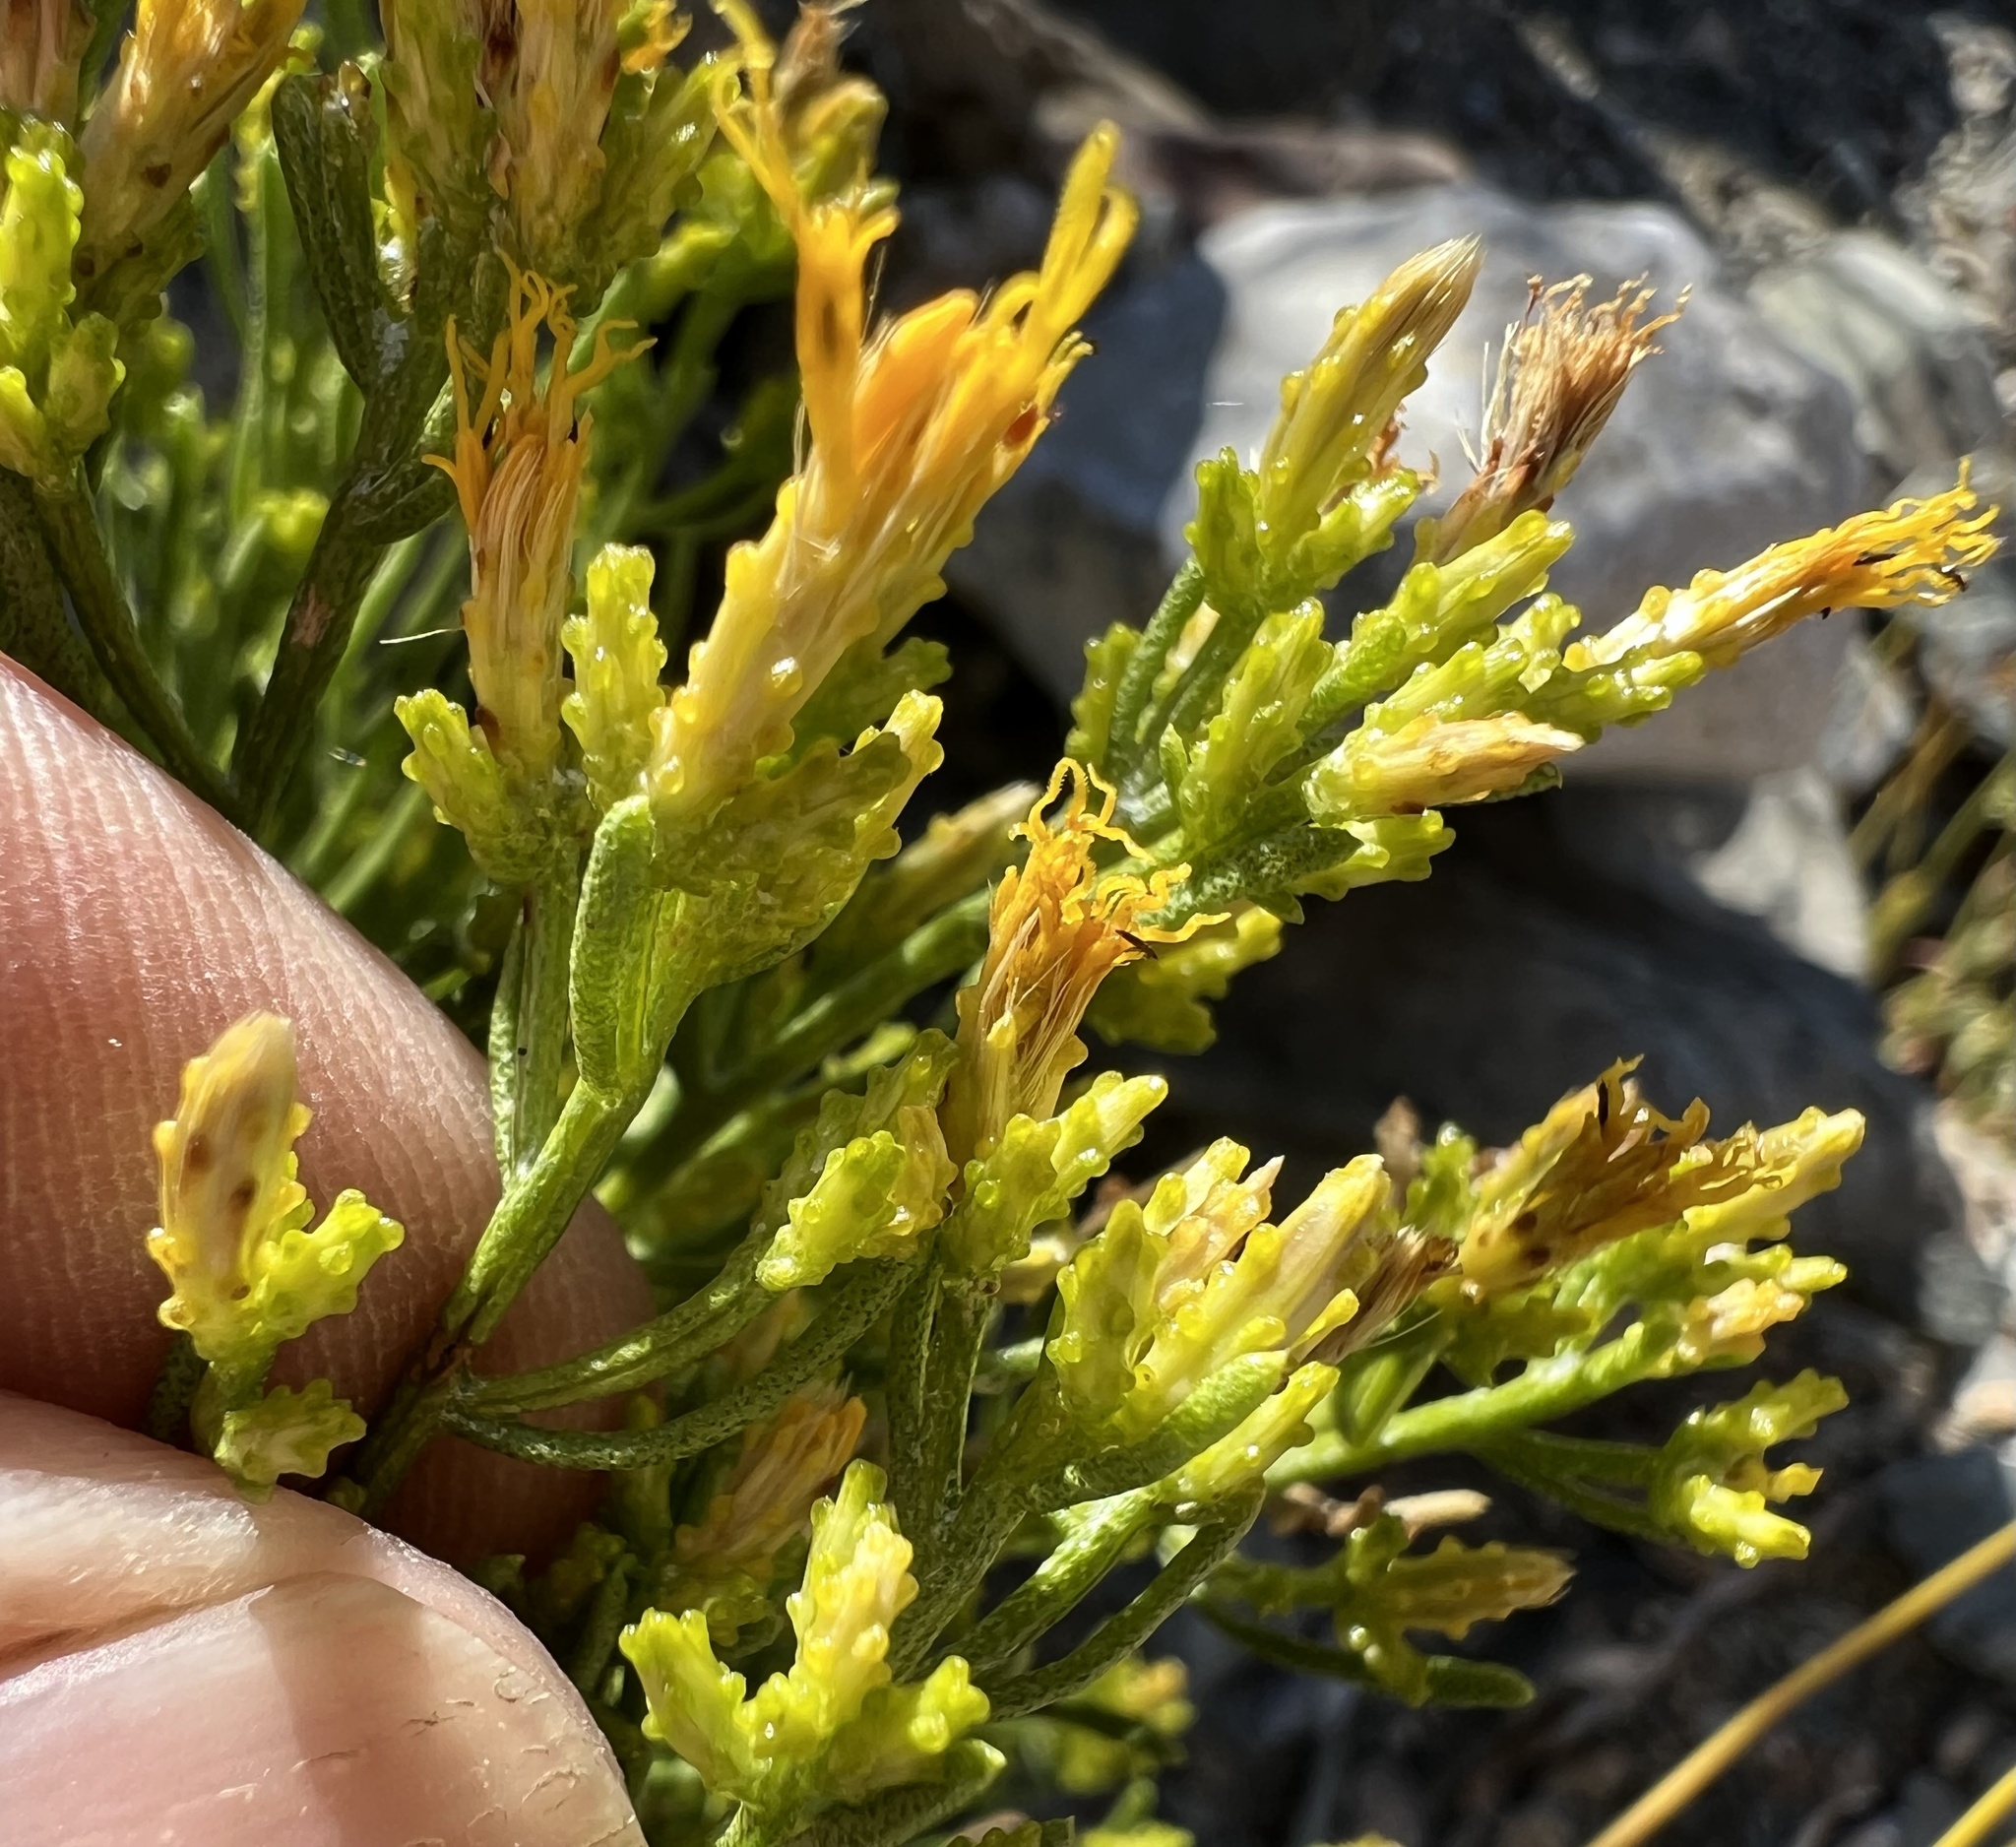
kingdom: Plantae
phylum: Tracheophyta
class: Magnoliopsida
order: Asterales
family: Asteraceae
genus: Ericameria
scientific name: Ericameria teretifolia
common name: Round-leaf rabbitbrush
